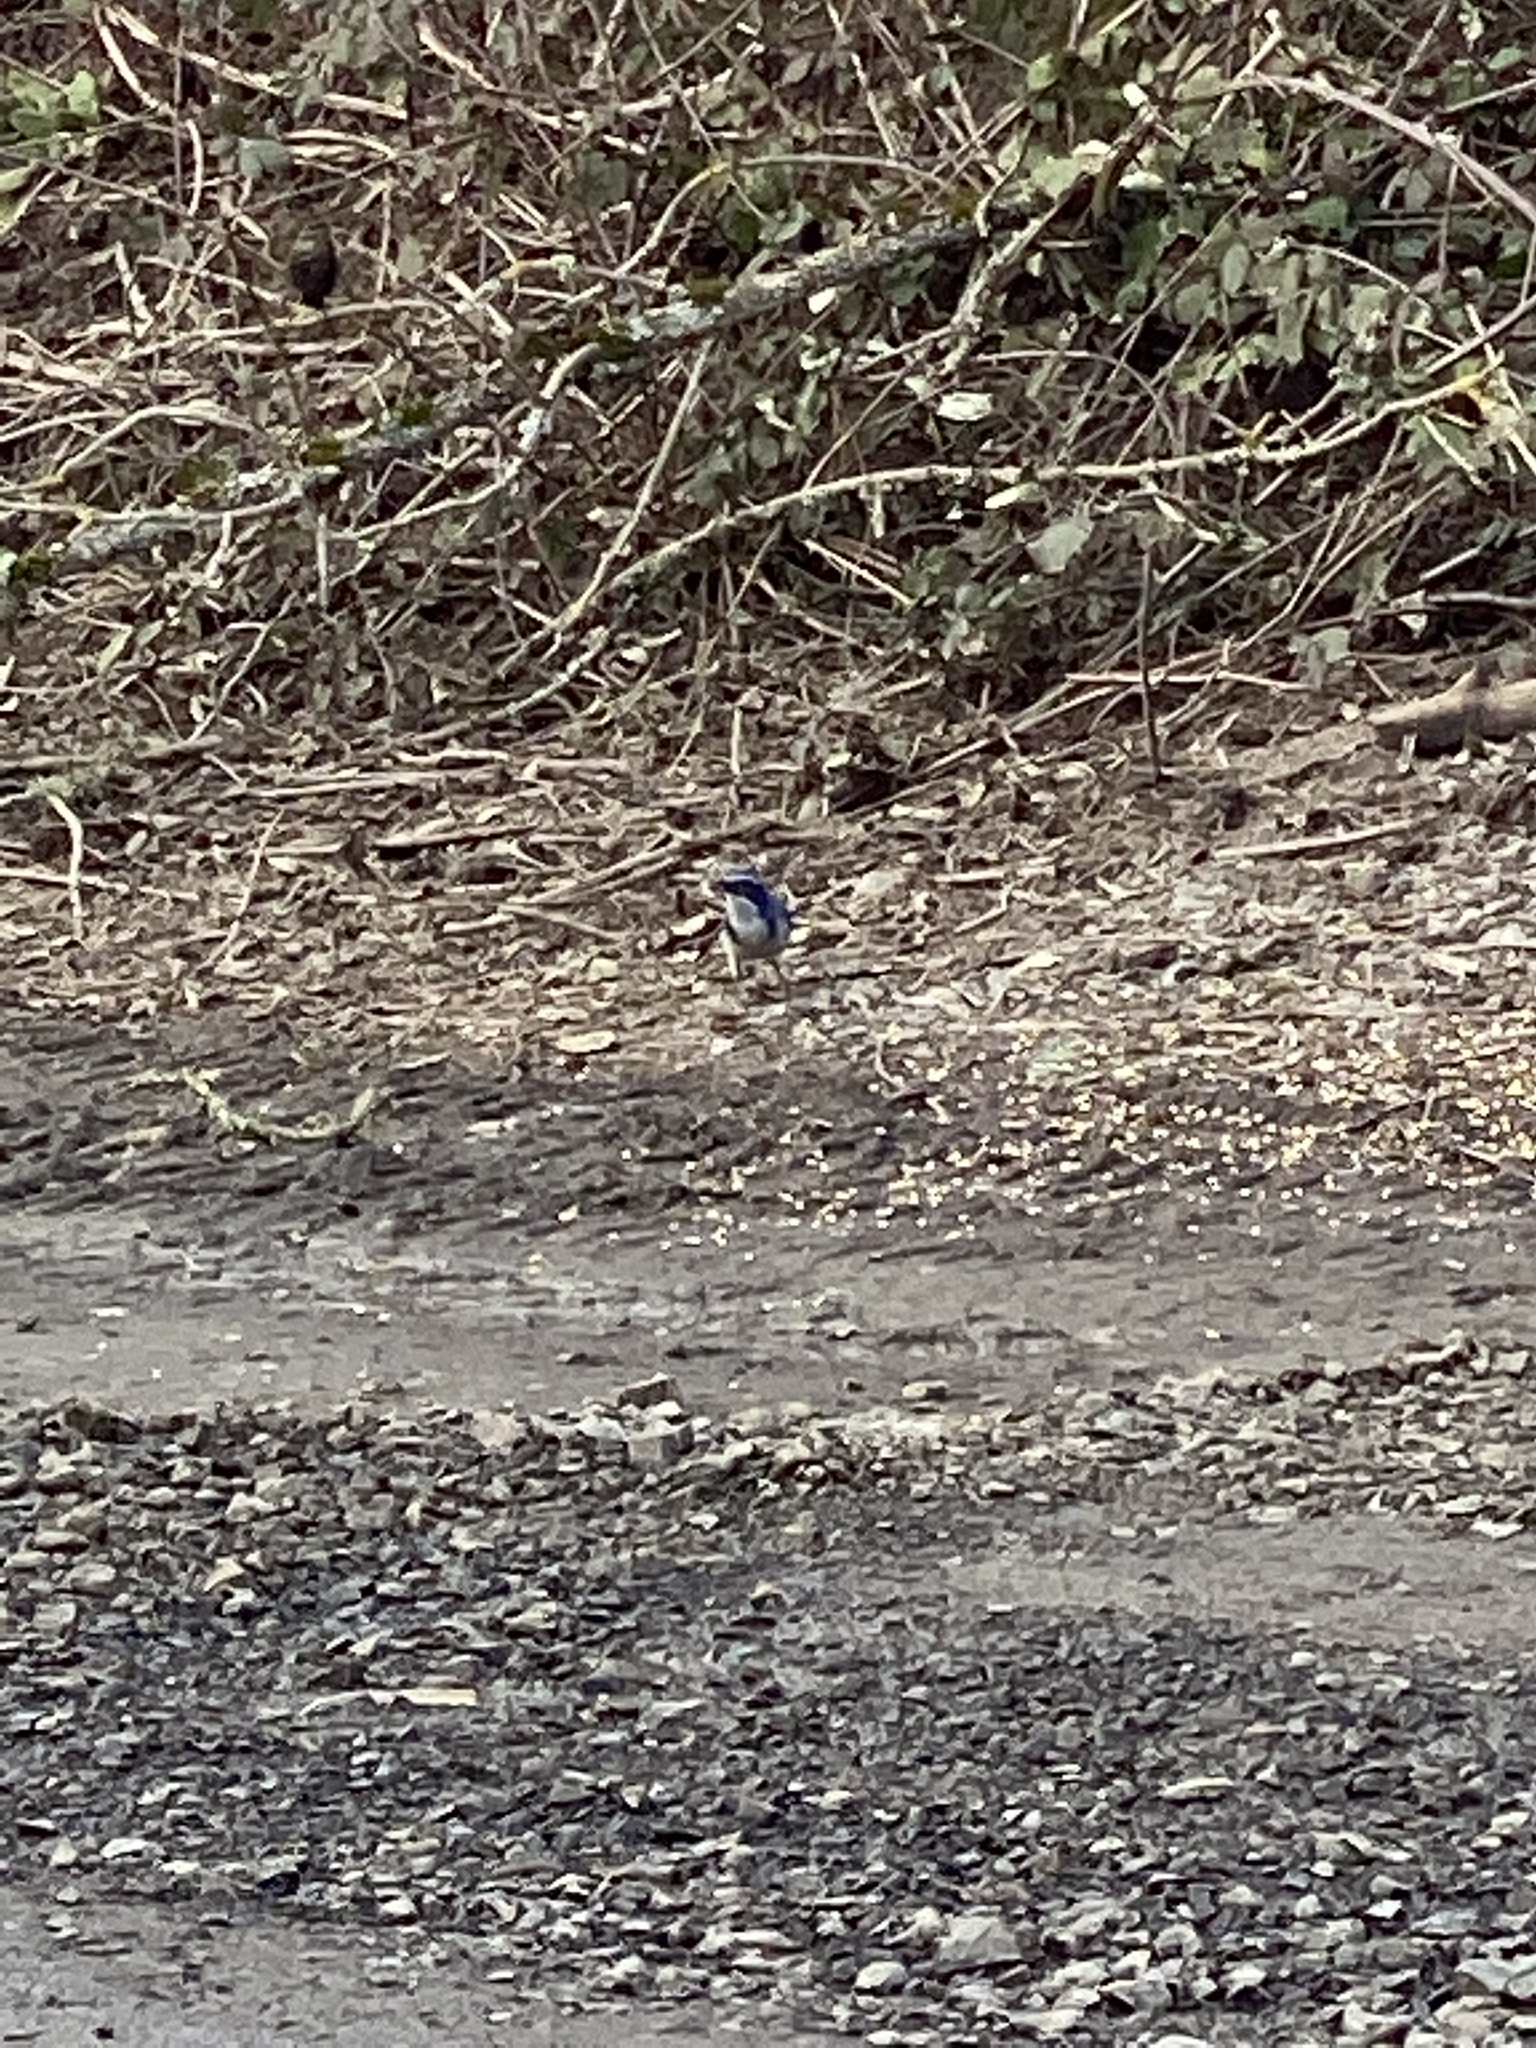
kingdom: Animalia
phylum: Chordata
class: Aves
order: Passeriformes
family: Corvidae
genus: Aphelocoma
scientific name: Aphelocoma californica
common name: California scrub-jay
